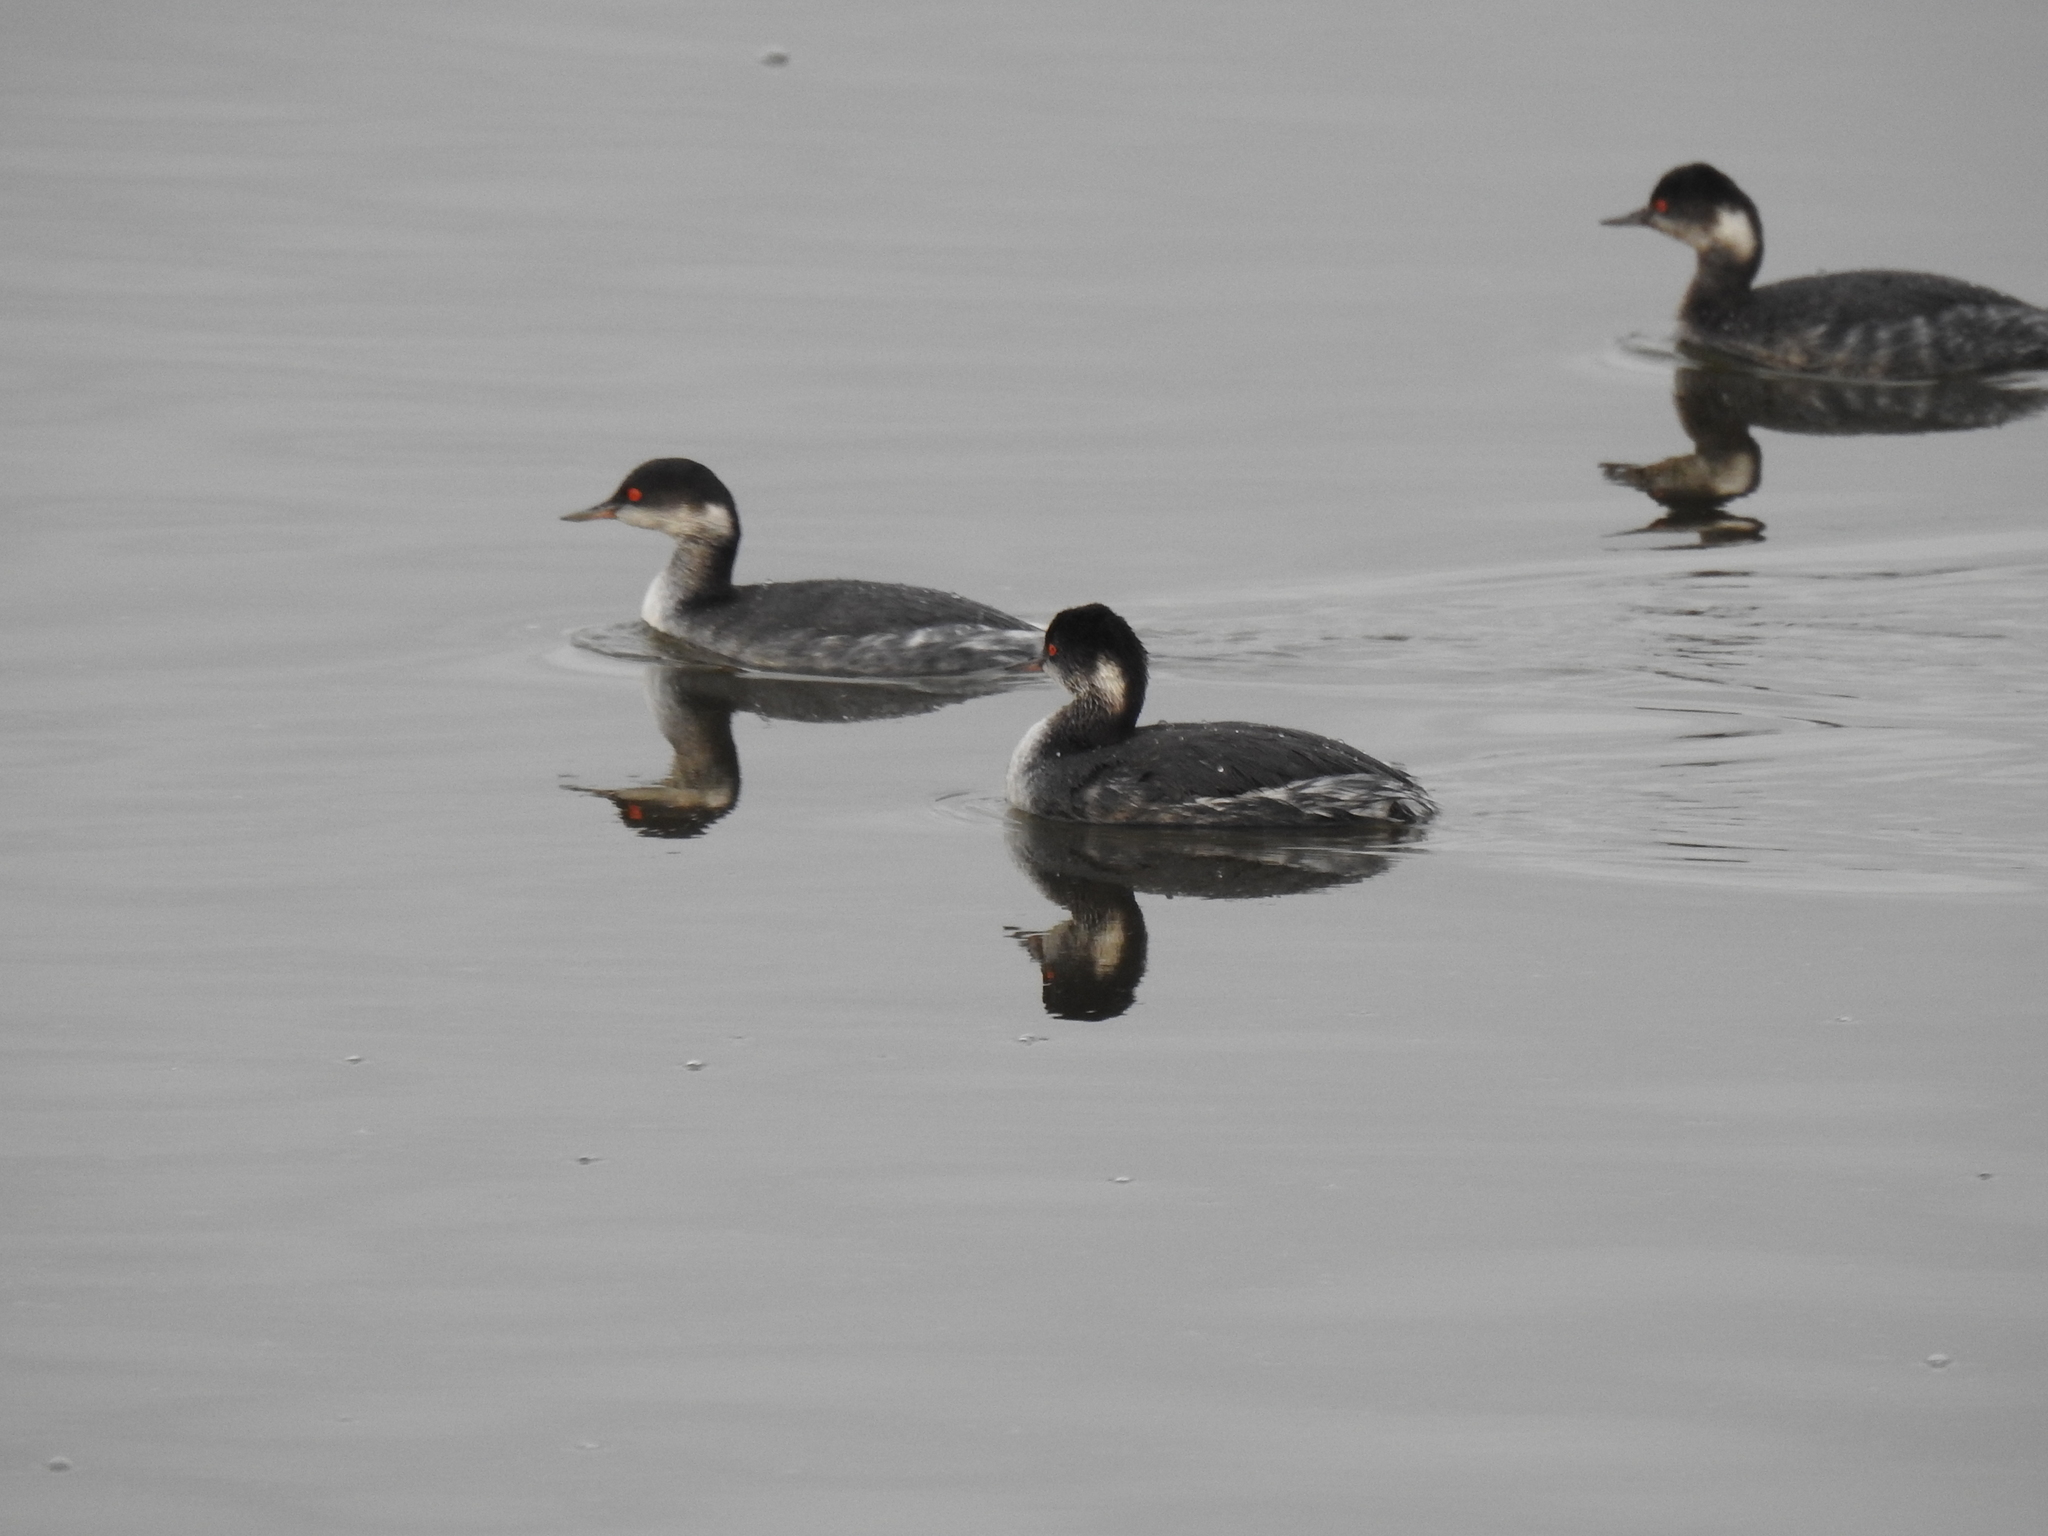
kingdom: Animalia
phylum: Chordata
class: Aves
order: Podicipediformes
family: Podicipedidae
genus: Podiceps
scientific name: Podiceps nigricollis
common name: Black-necked grebe
